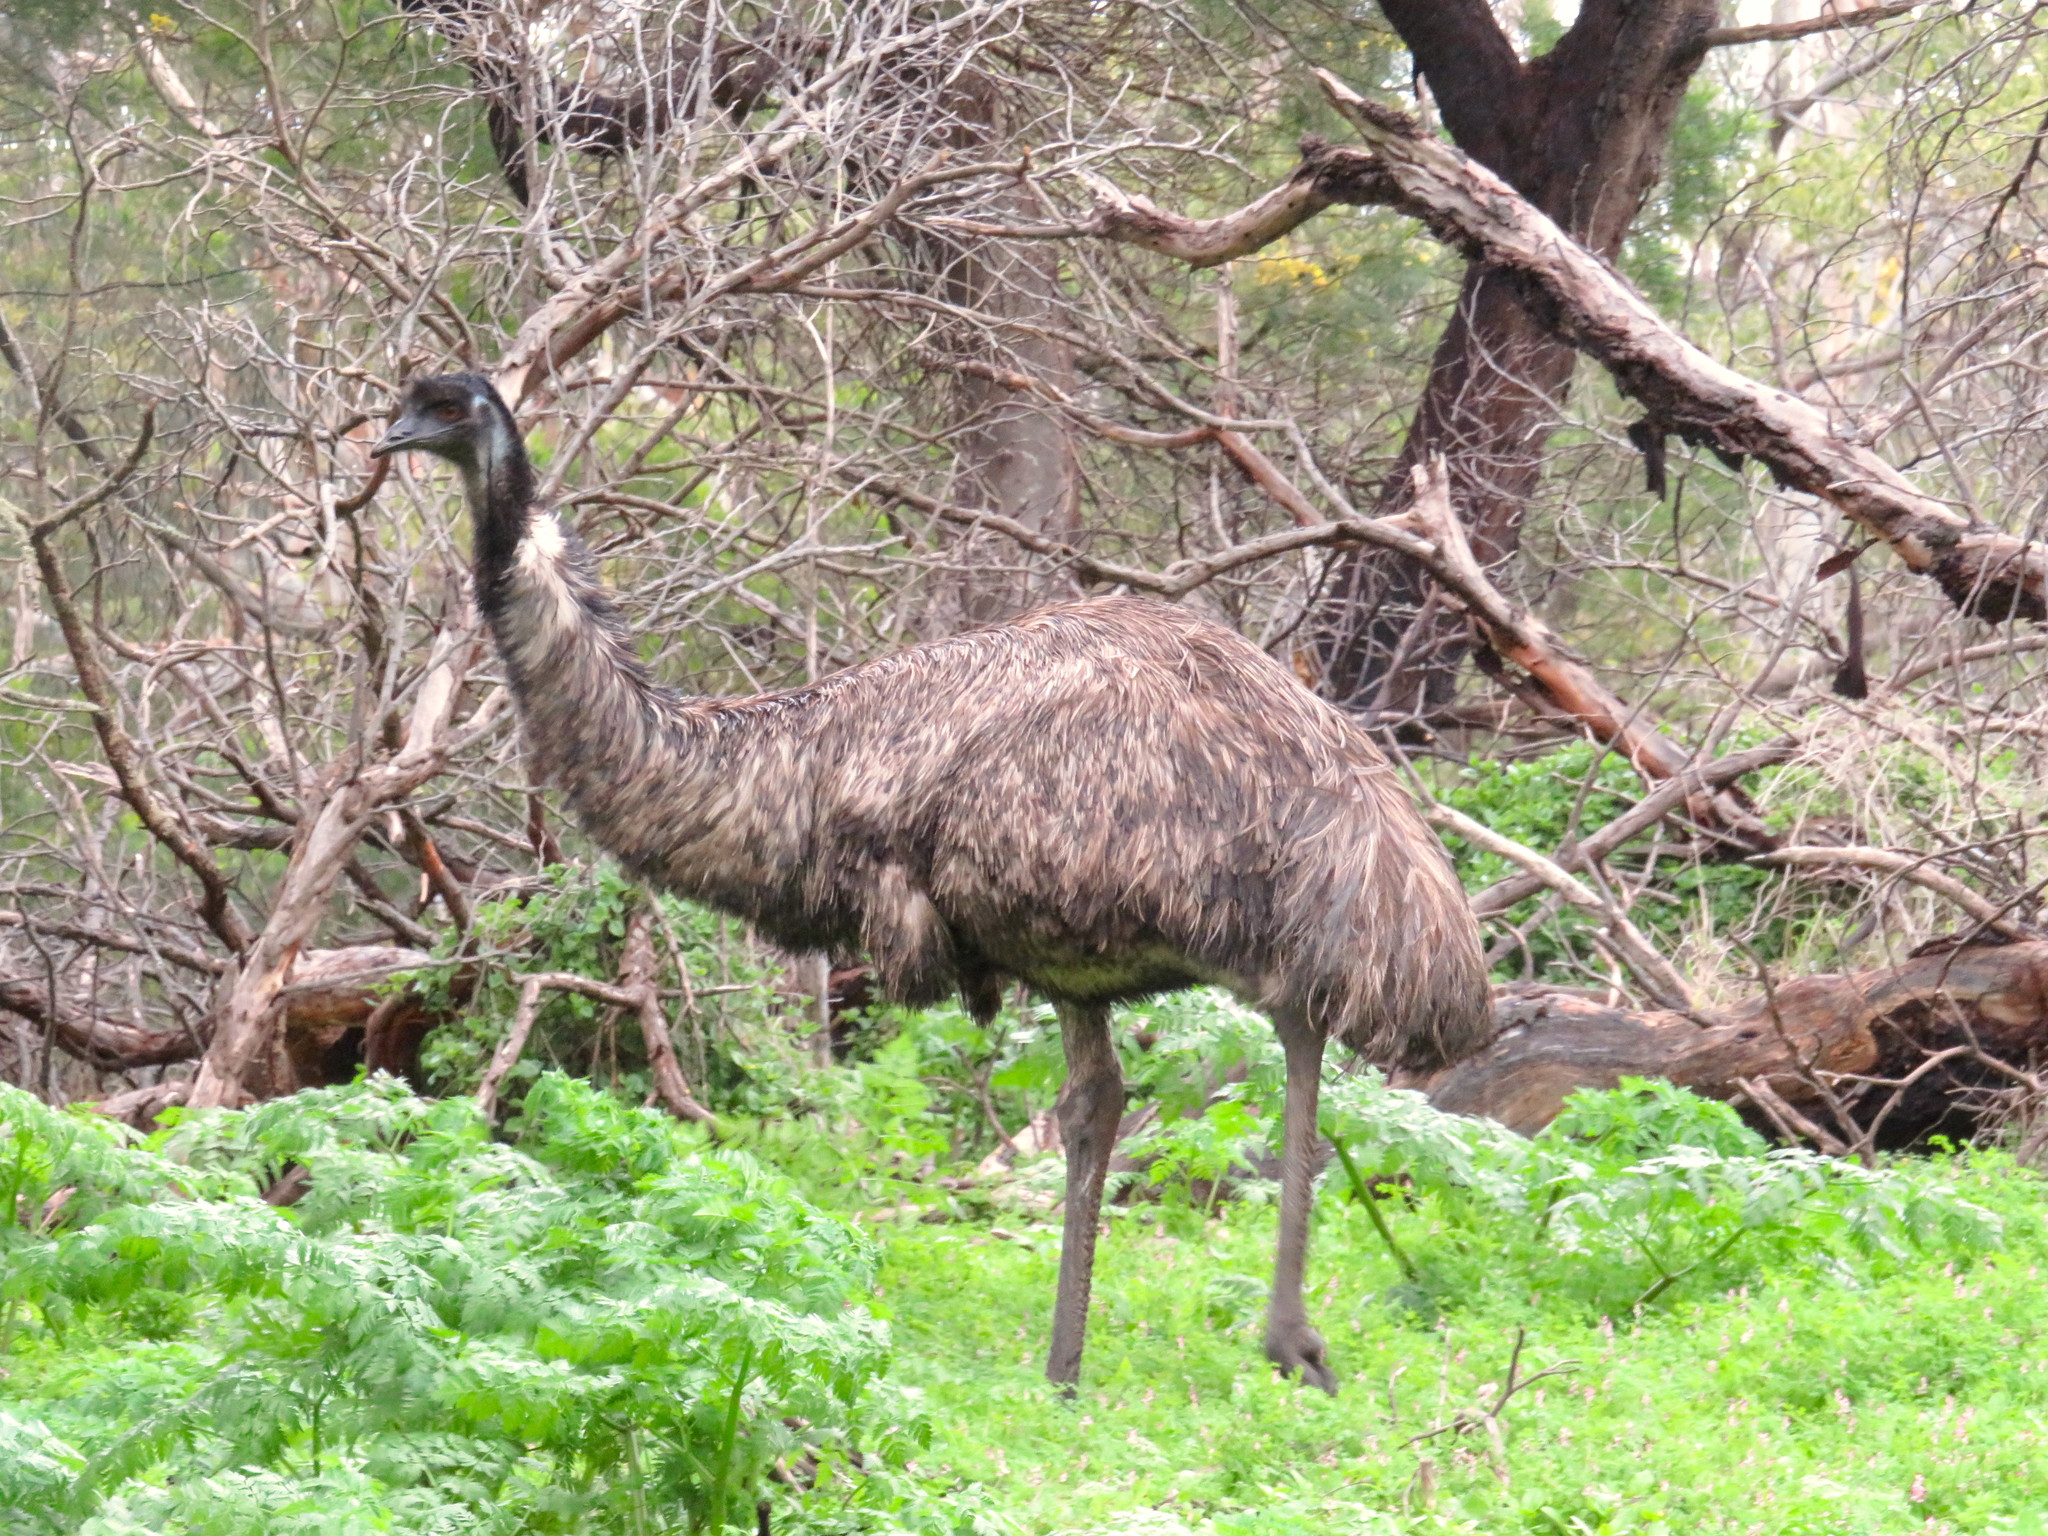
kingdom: Animalia
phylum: Chordata
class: Aves
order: Casuariiformes
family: Dromaiidae
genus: Dromaius
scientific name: Dromaius novaehollandiae
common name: Emu
